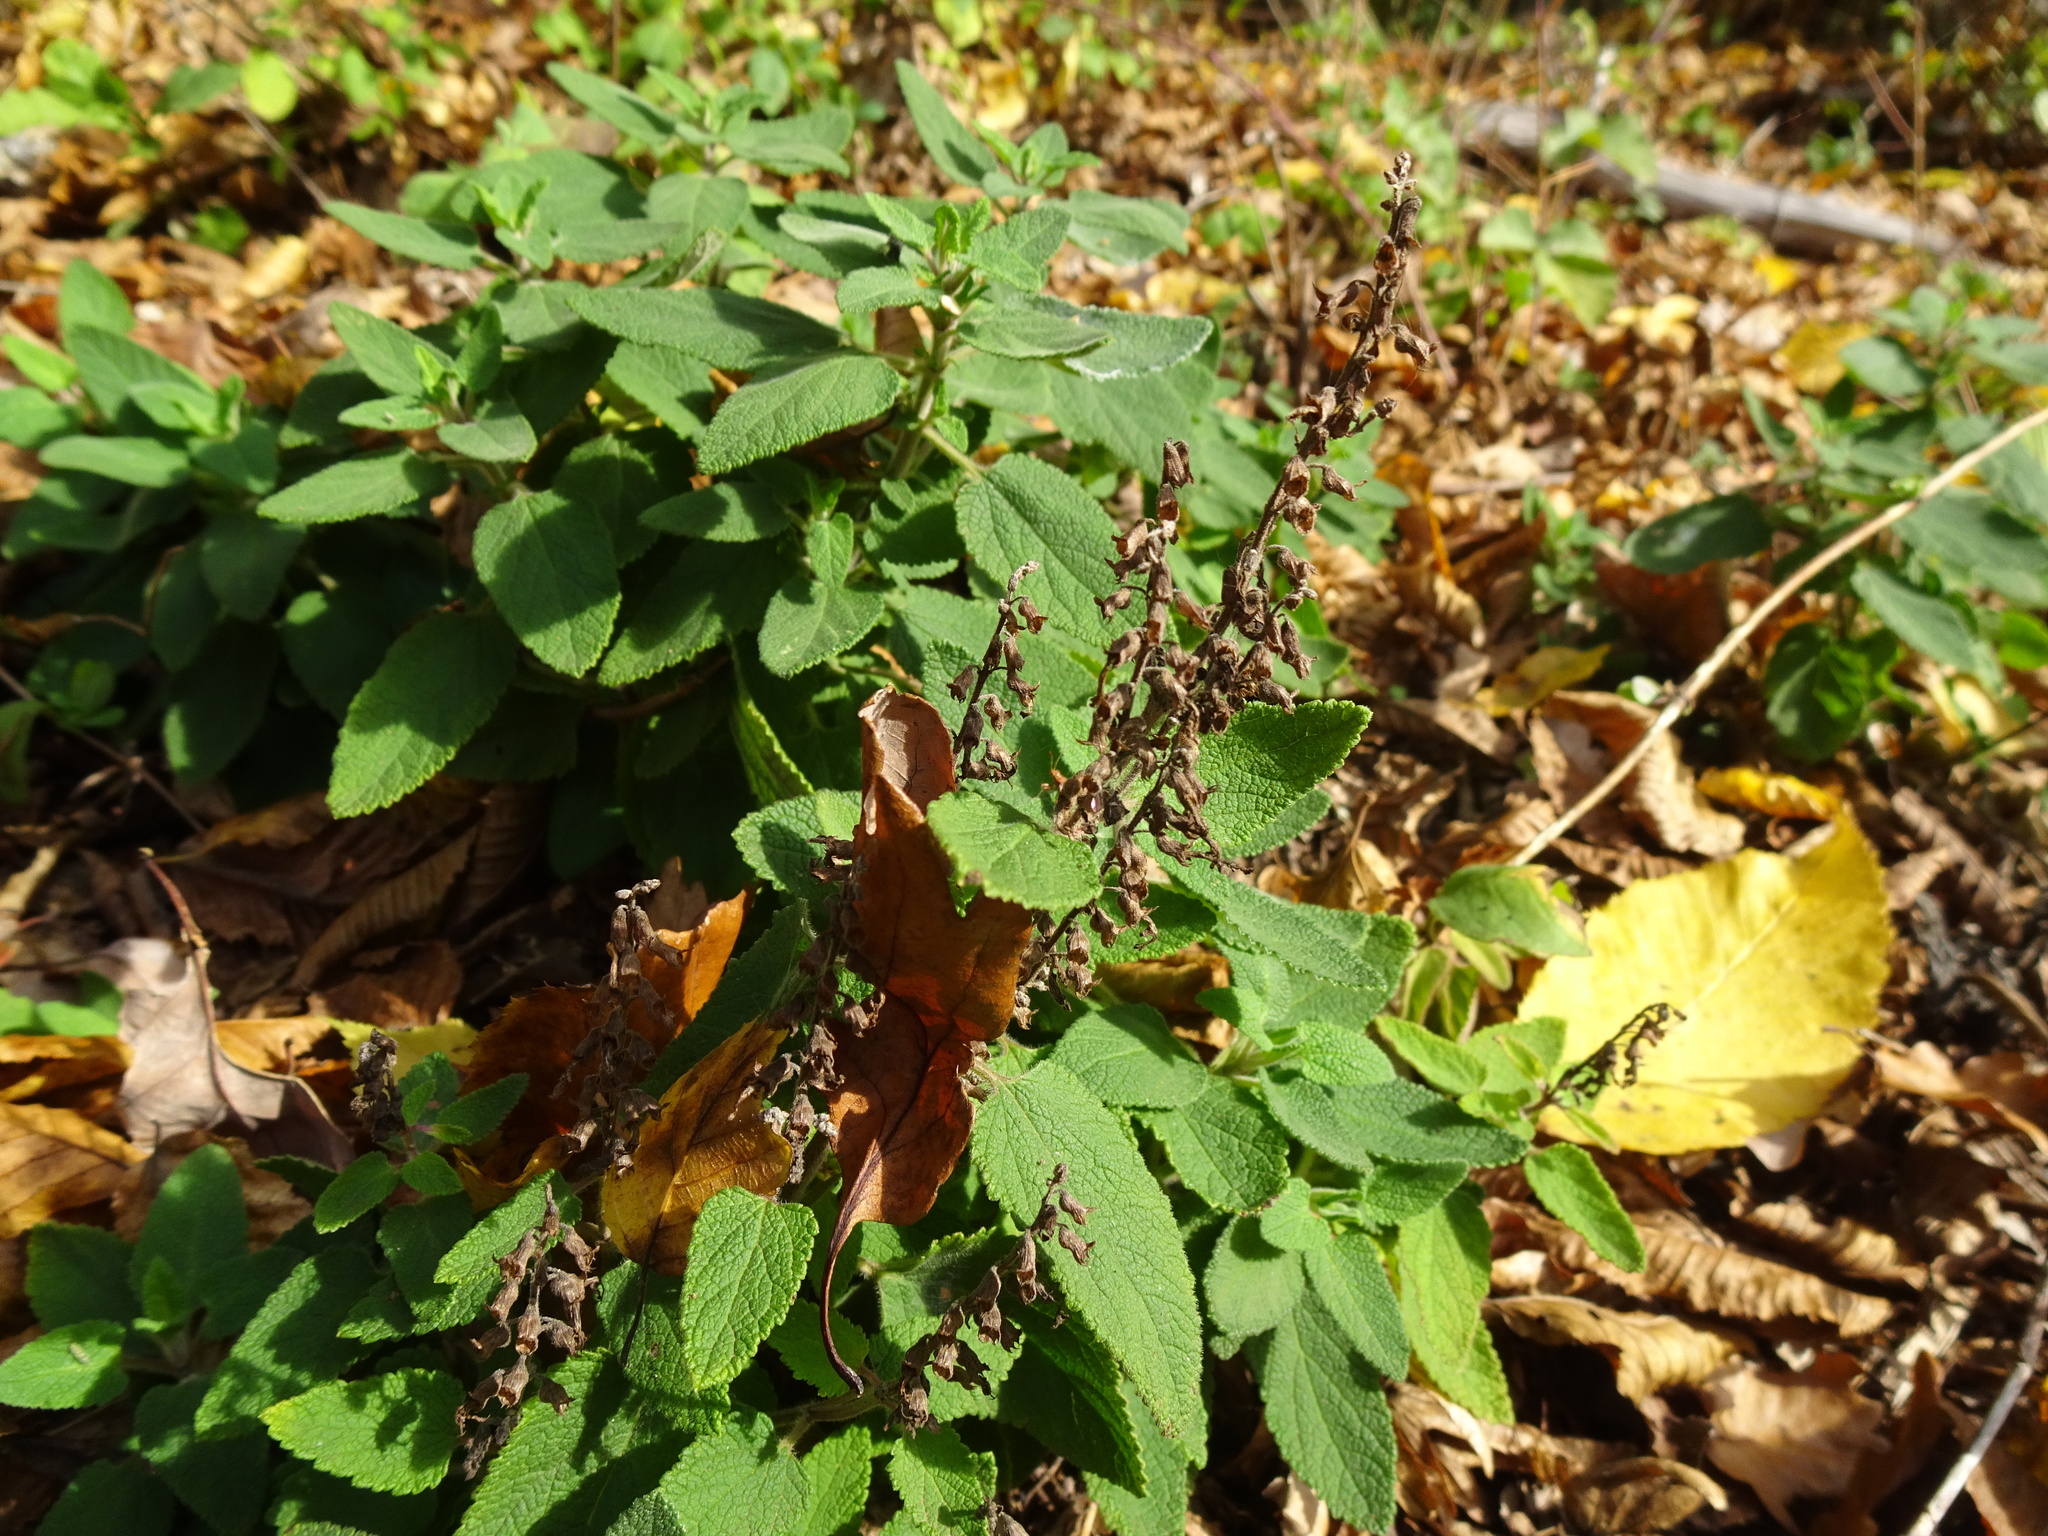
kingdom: Plantae
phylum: Tracheophyta
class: Magnoliopsida
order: Lamiales
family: Lamiaceae
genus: Teucrium
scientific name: Teucrium scorodonia
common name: Woodland germander
